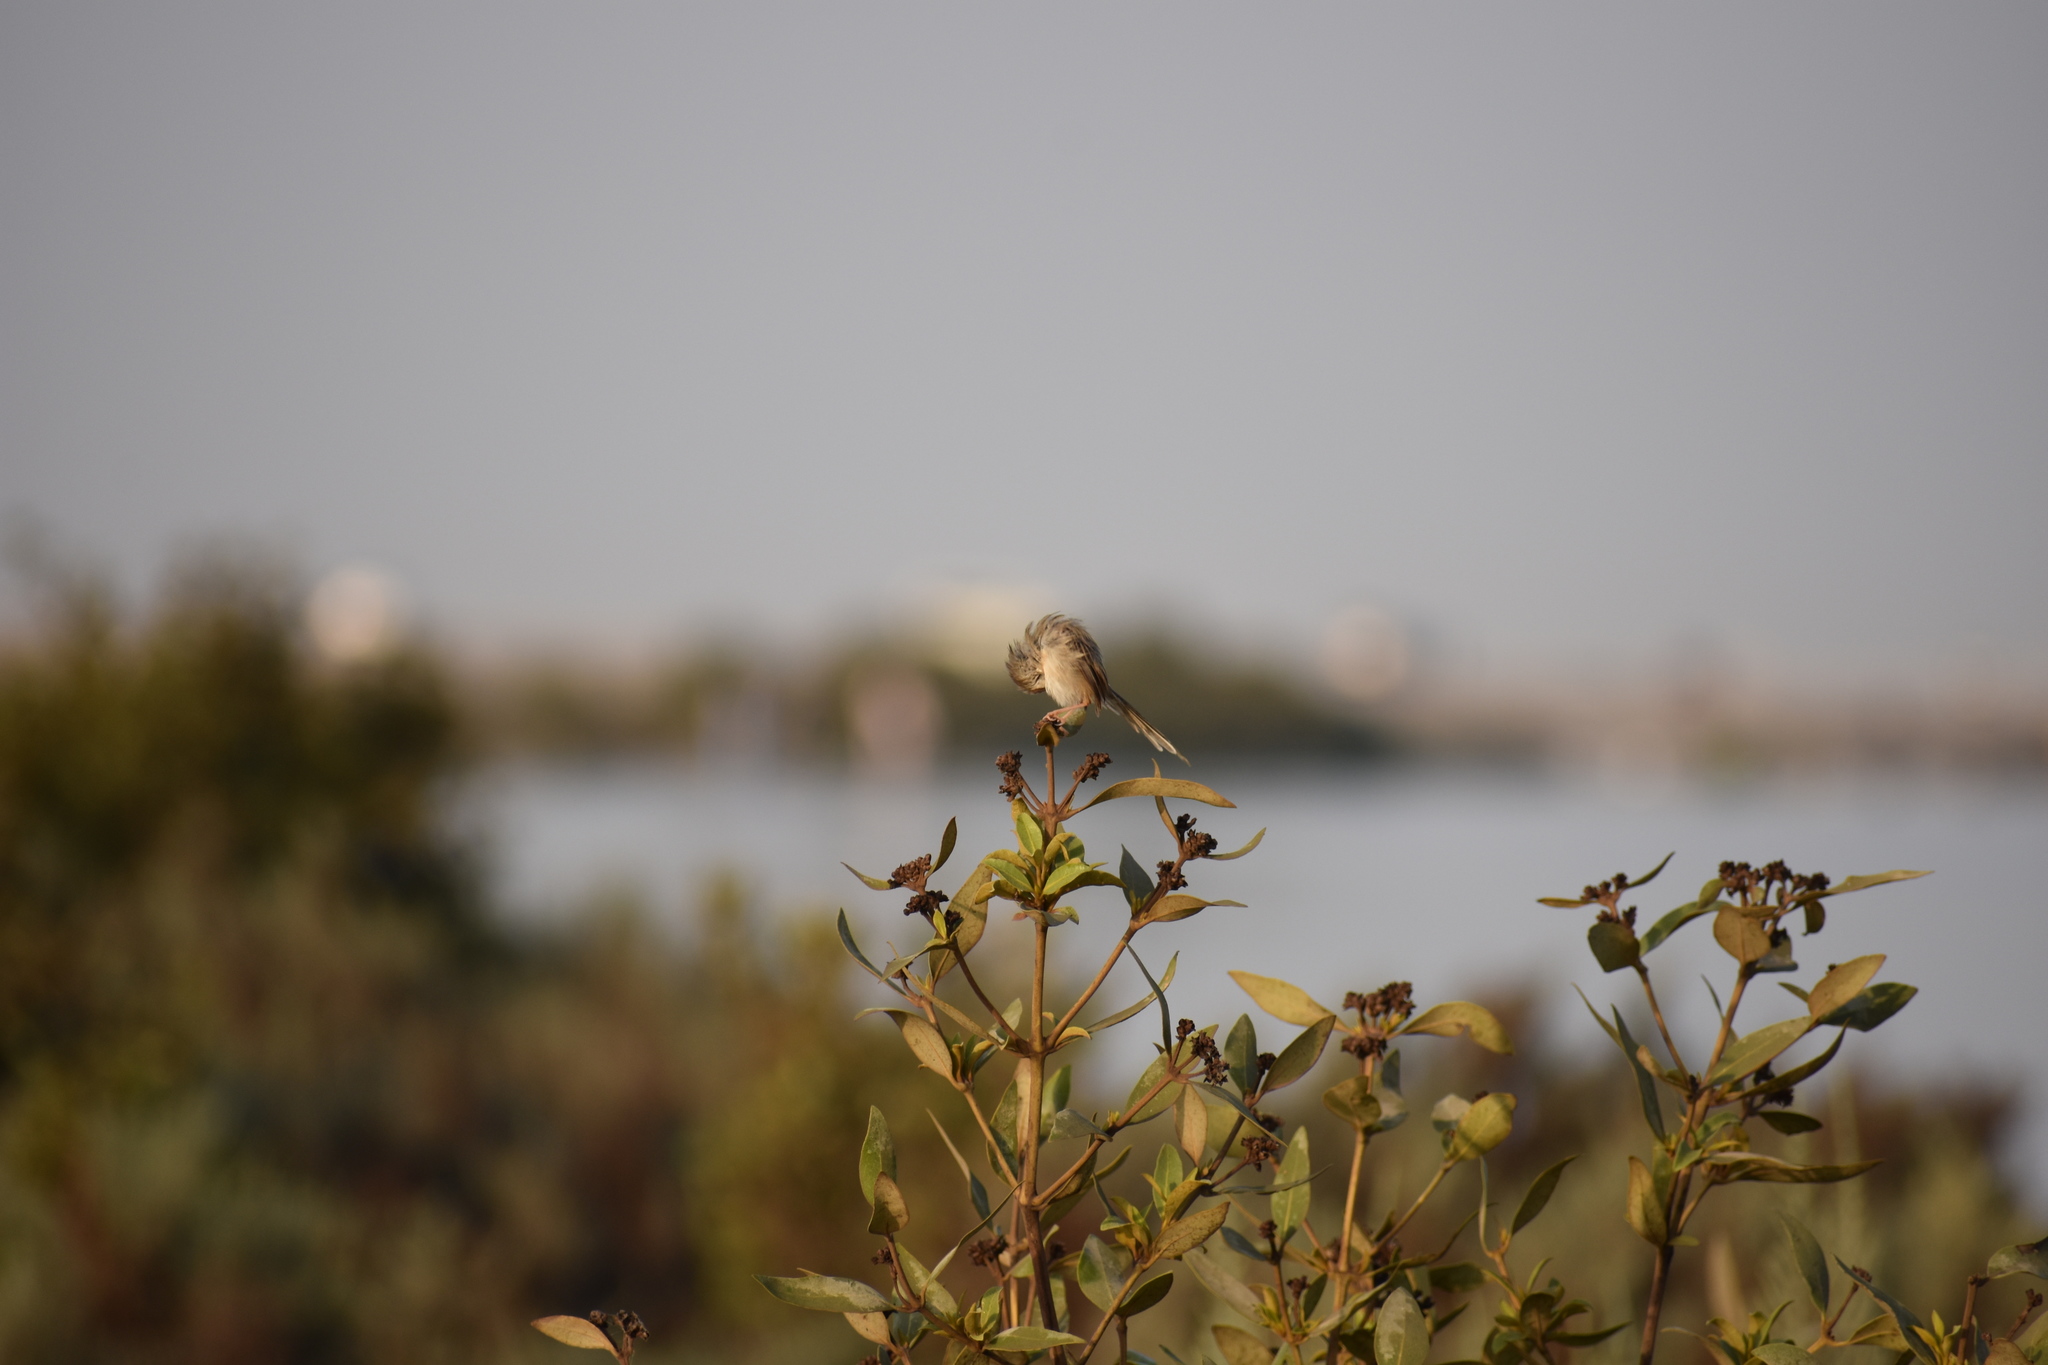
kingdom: Animalia
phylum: Chordata
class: Aves
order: Passeriformes
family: Cisticolidae
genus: Prinia
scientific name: Prinia lepida
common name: Delicate prinia
